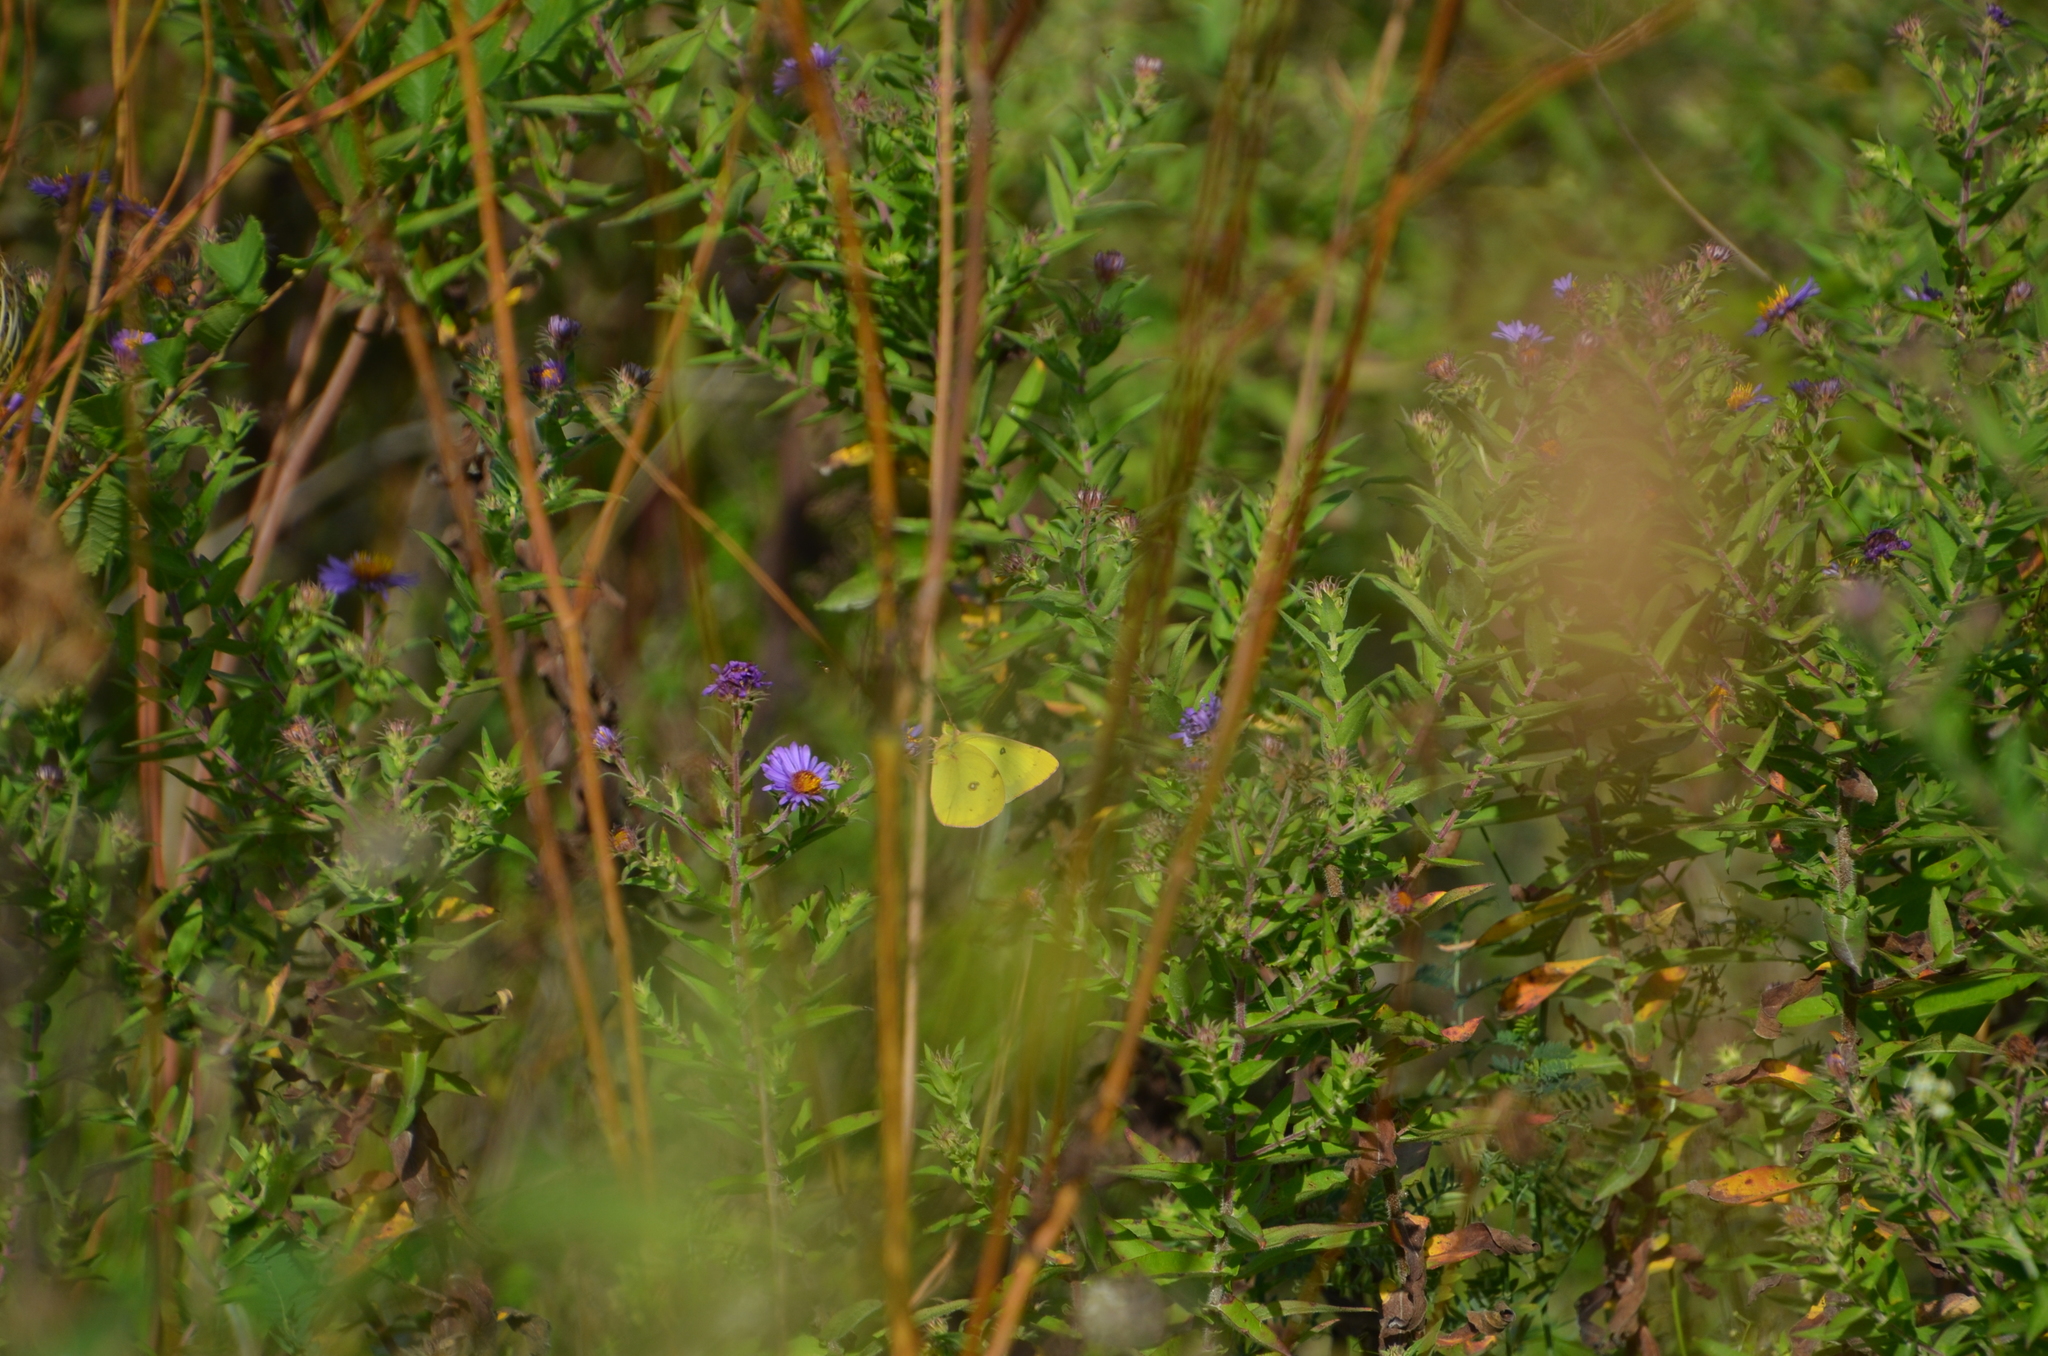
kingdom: Animalia
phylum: Arthropoda
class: Insecta
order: Lepidoptera
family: Pieridae
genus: Colias
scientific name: Colias philodice
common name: Clouded sulphur
